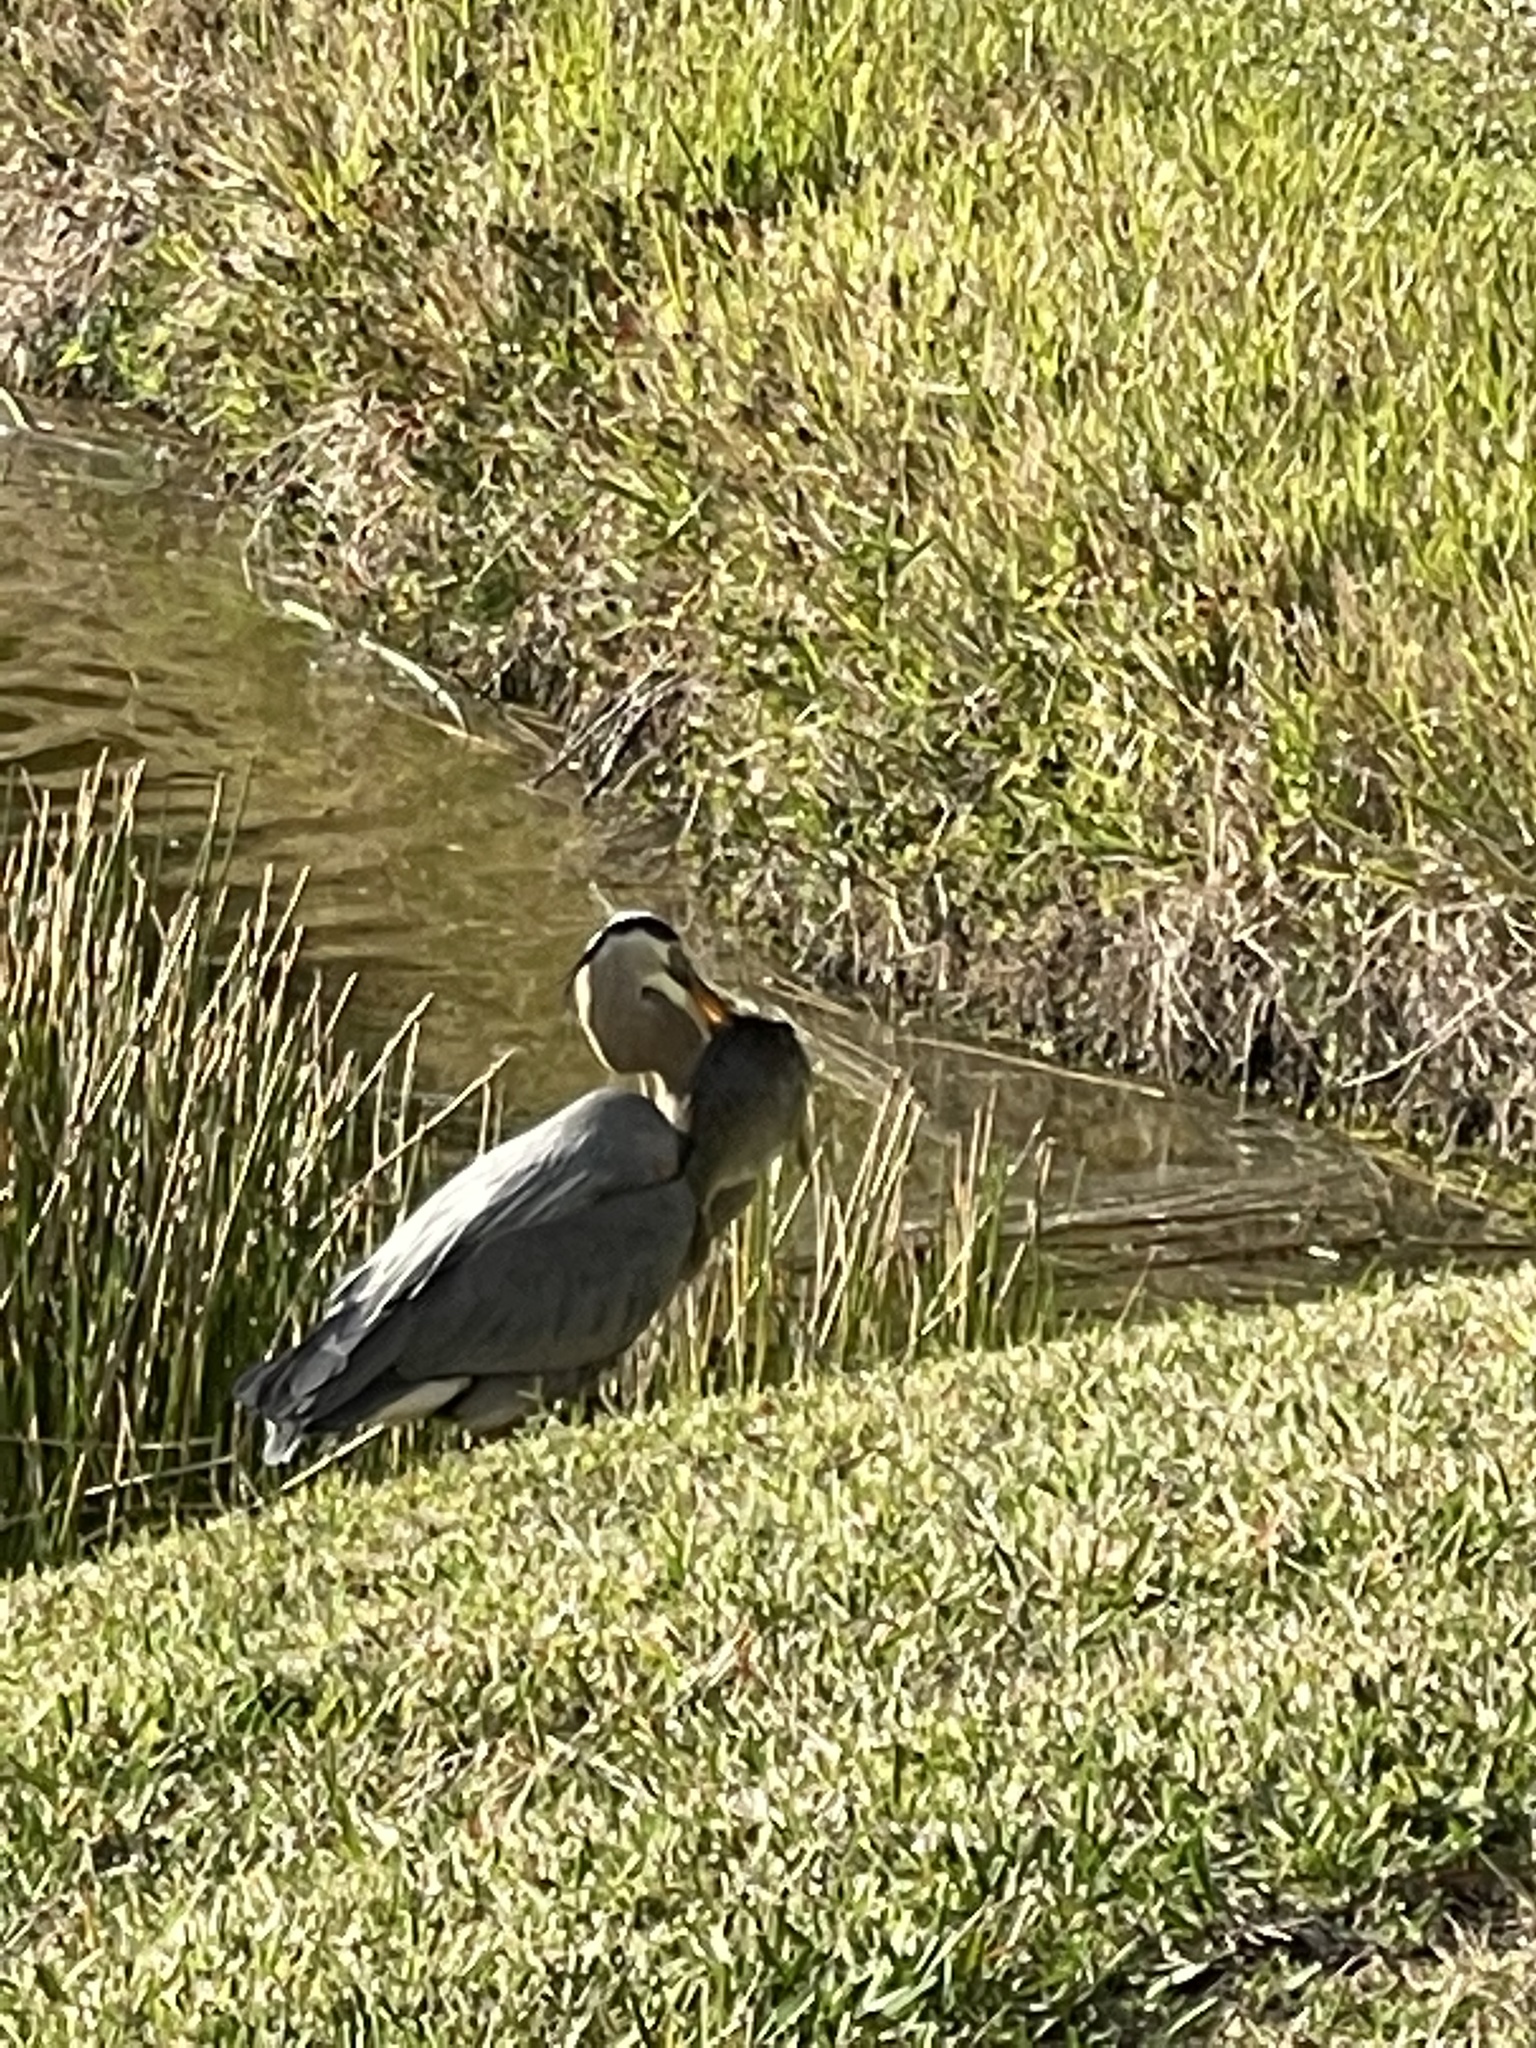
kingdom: Animalia
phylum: Chordata
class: Aves
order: Pelecaniformes
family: Ardeidae
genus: Ardea
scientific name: Ardea herodias
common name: Great blue heron
